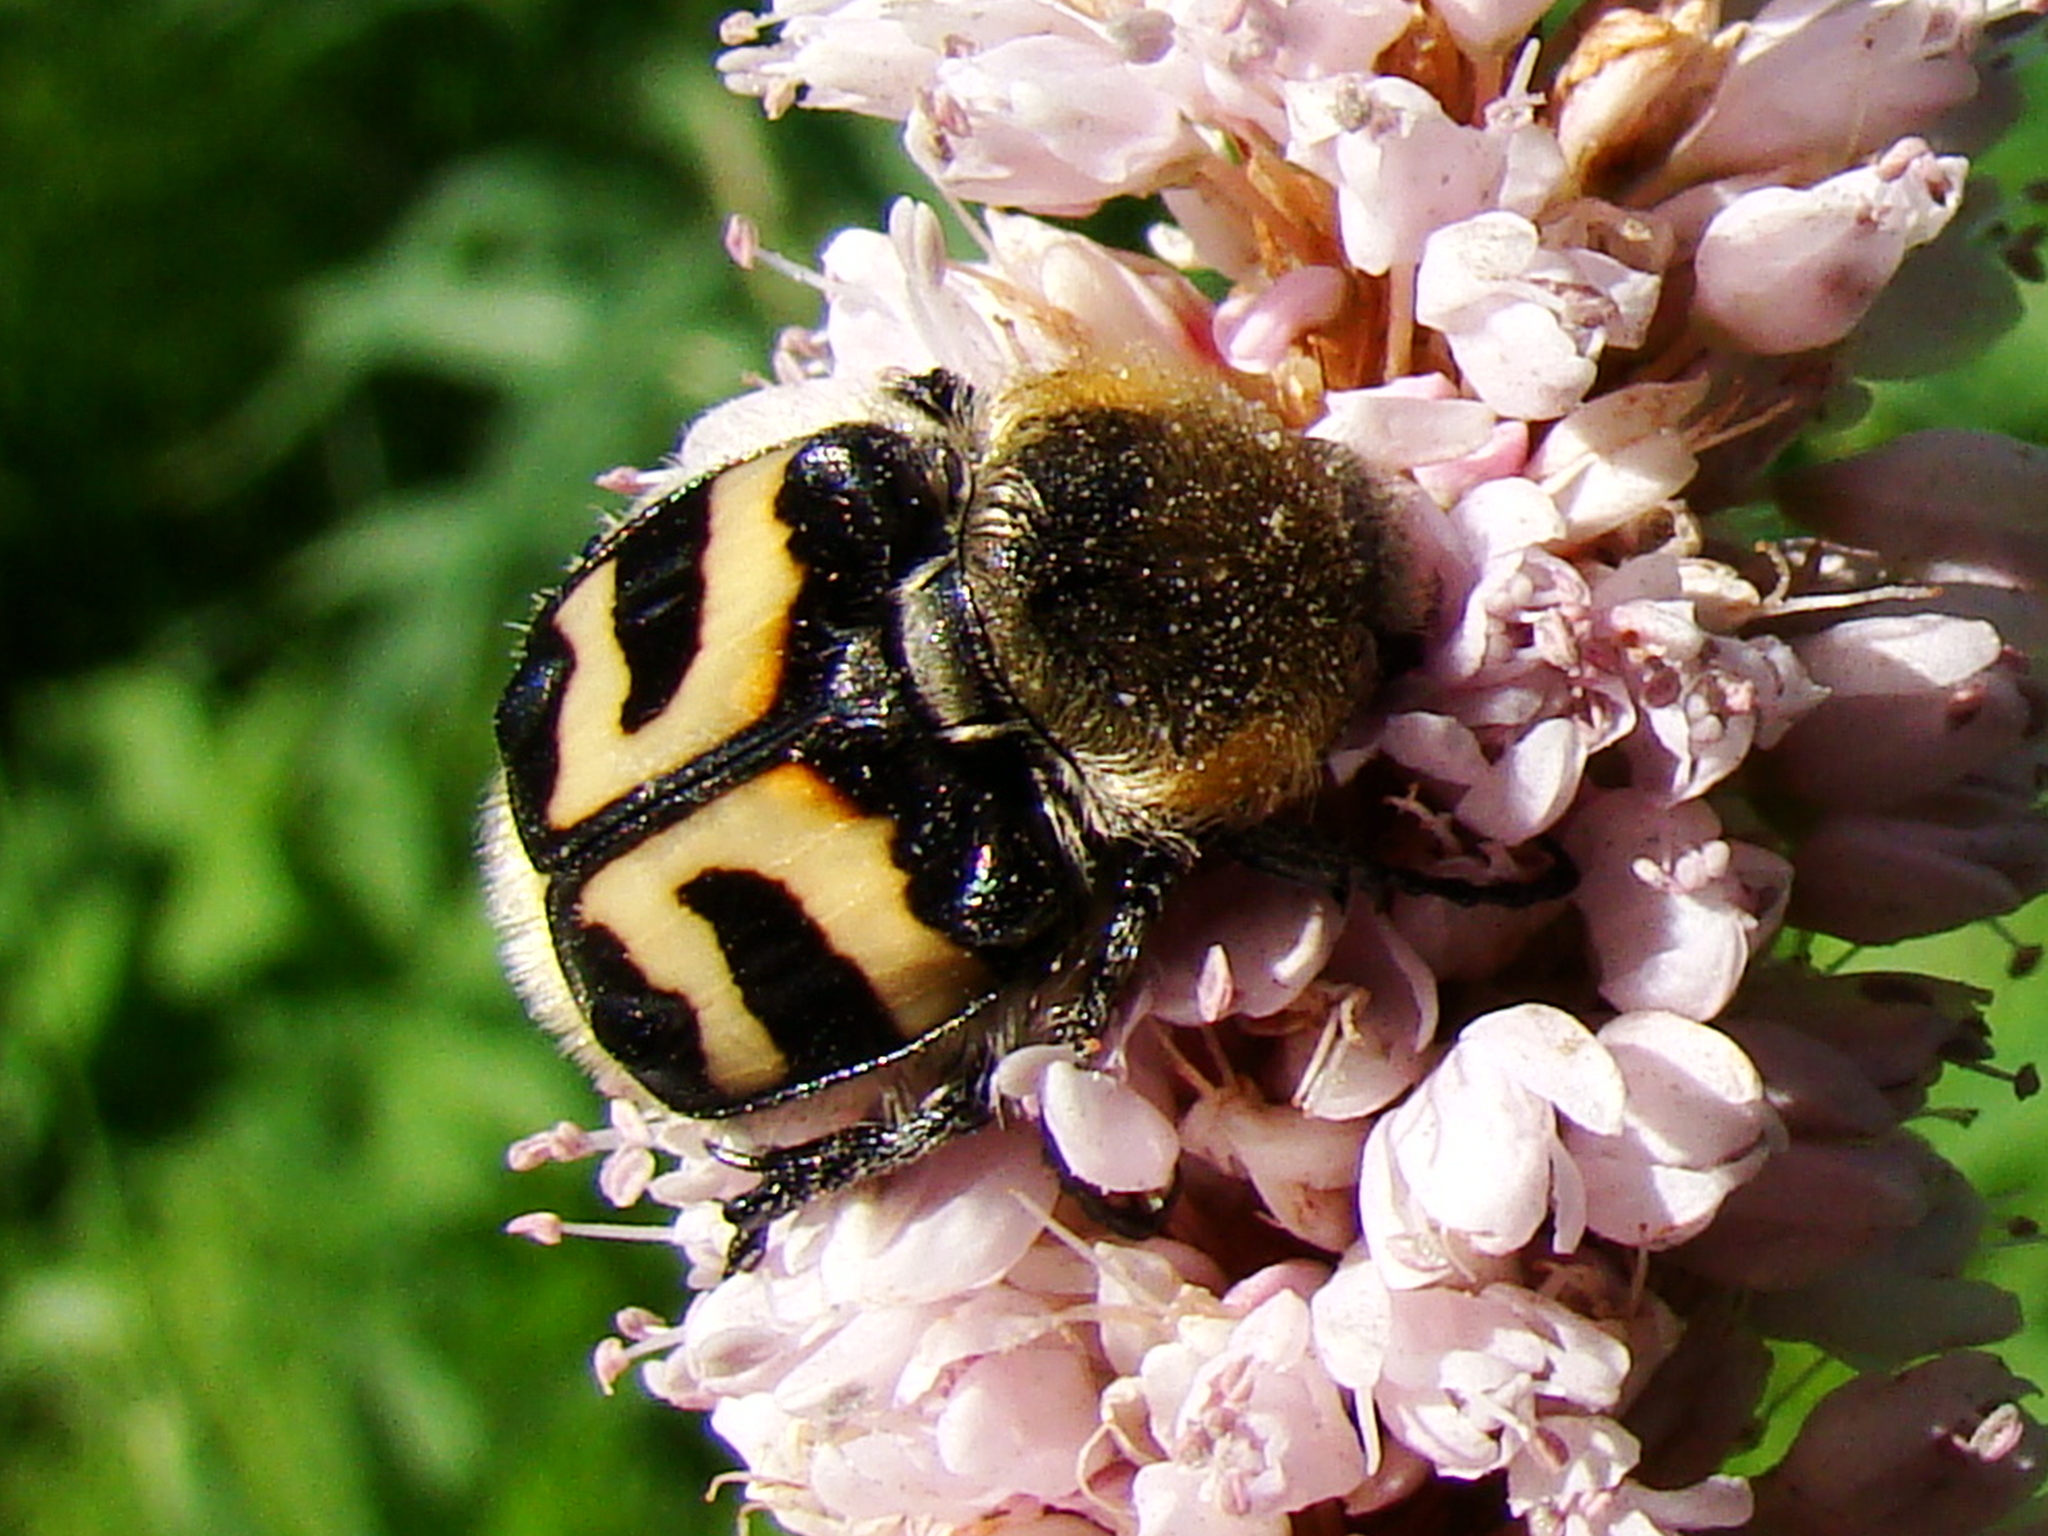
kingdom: Animalia
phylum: Arthropoda
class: Insecta
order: Coleoptera
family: Scarabaeidae
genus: Trichius
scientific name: Trichius fasciatus
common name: Bee beetle
